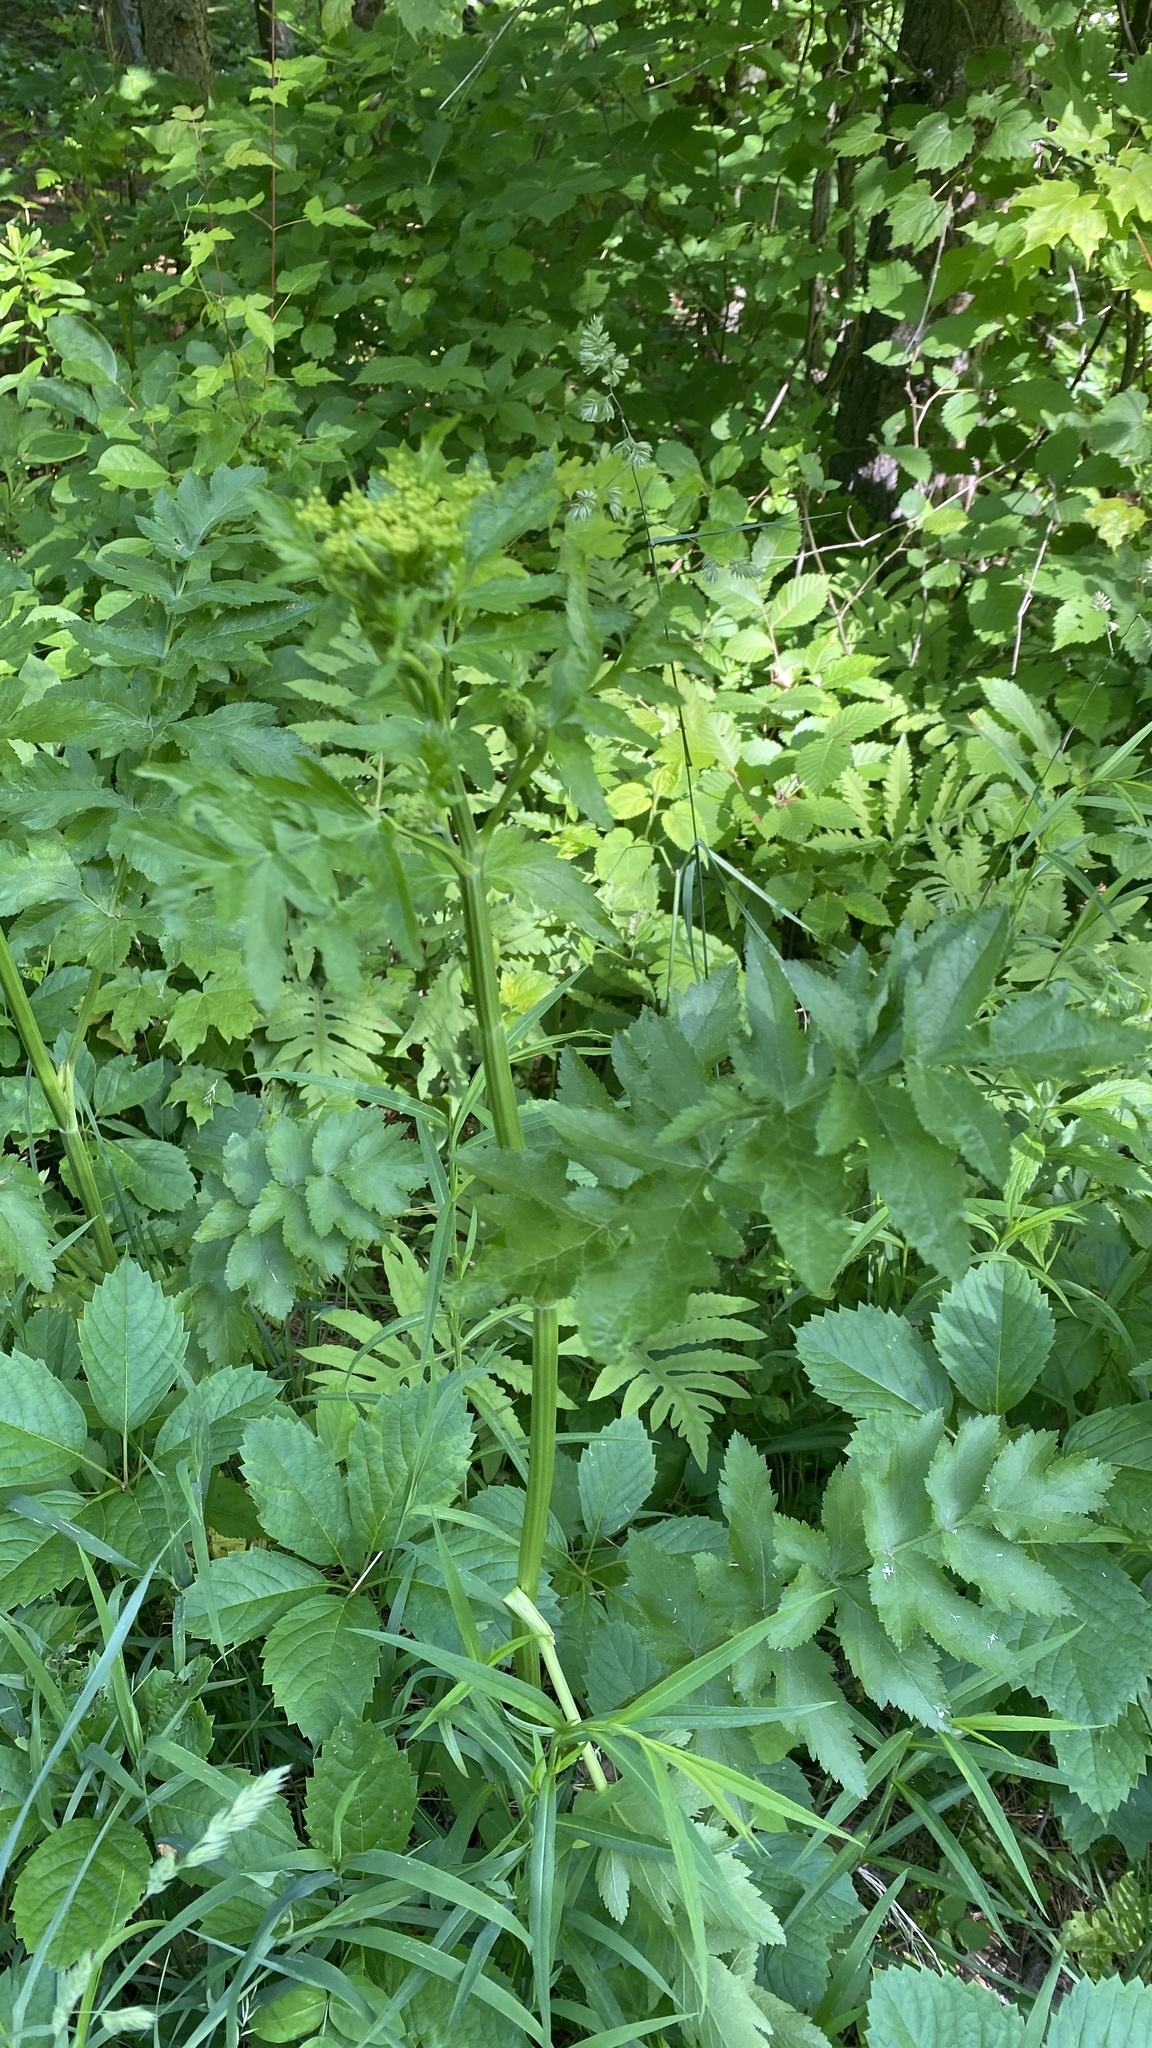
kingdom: Plantae
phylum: Tracheophyta
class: Magnoliopsida
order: Apiales
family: Apiaceae
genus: Pastinaca
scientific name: Pastinaca sativa
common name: Wild parsnip
